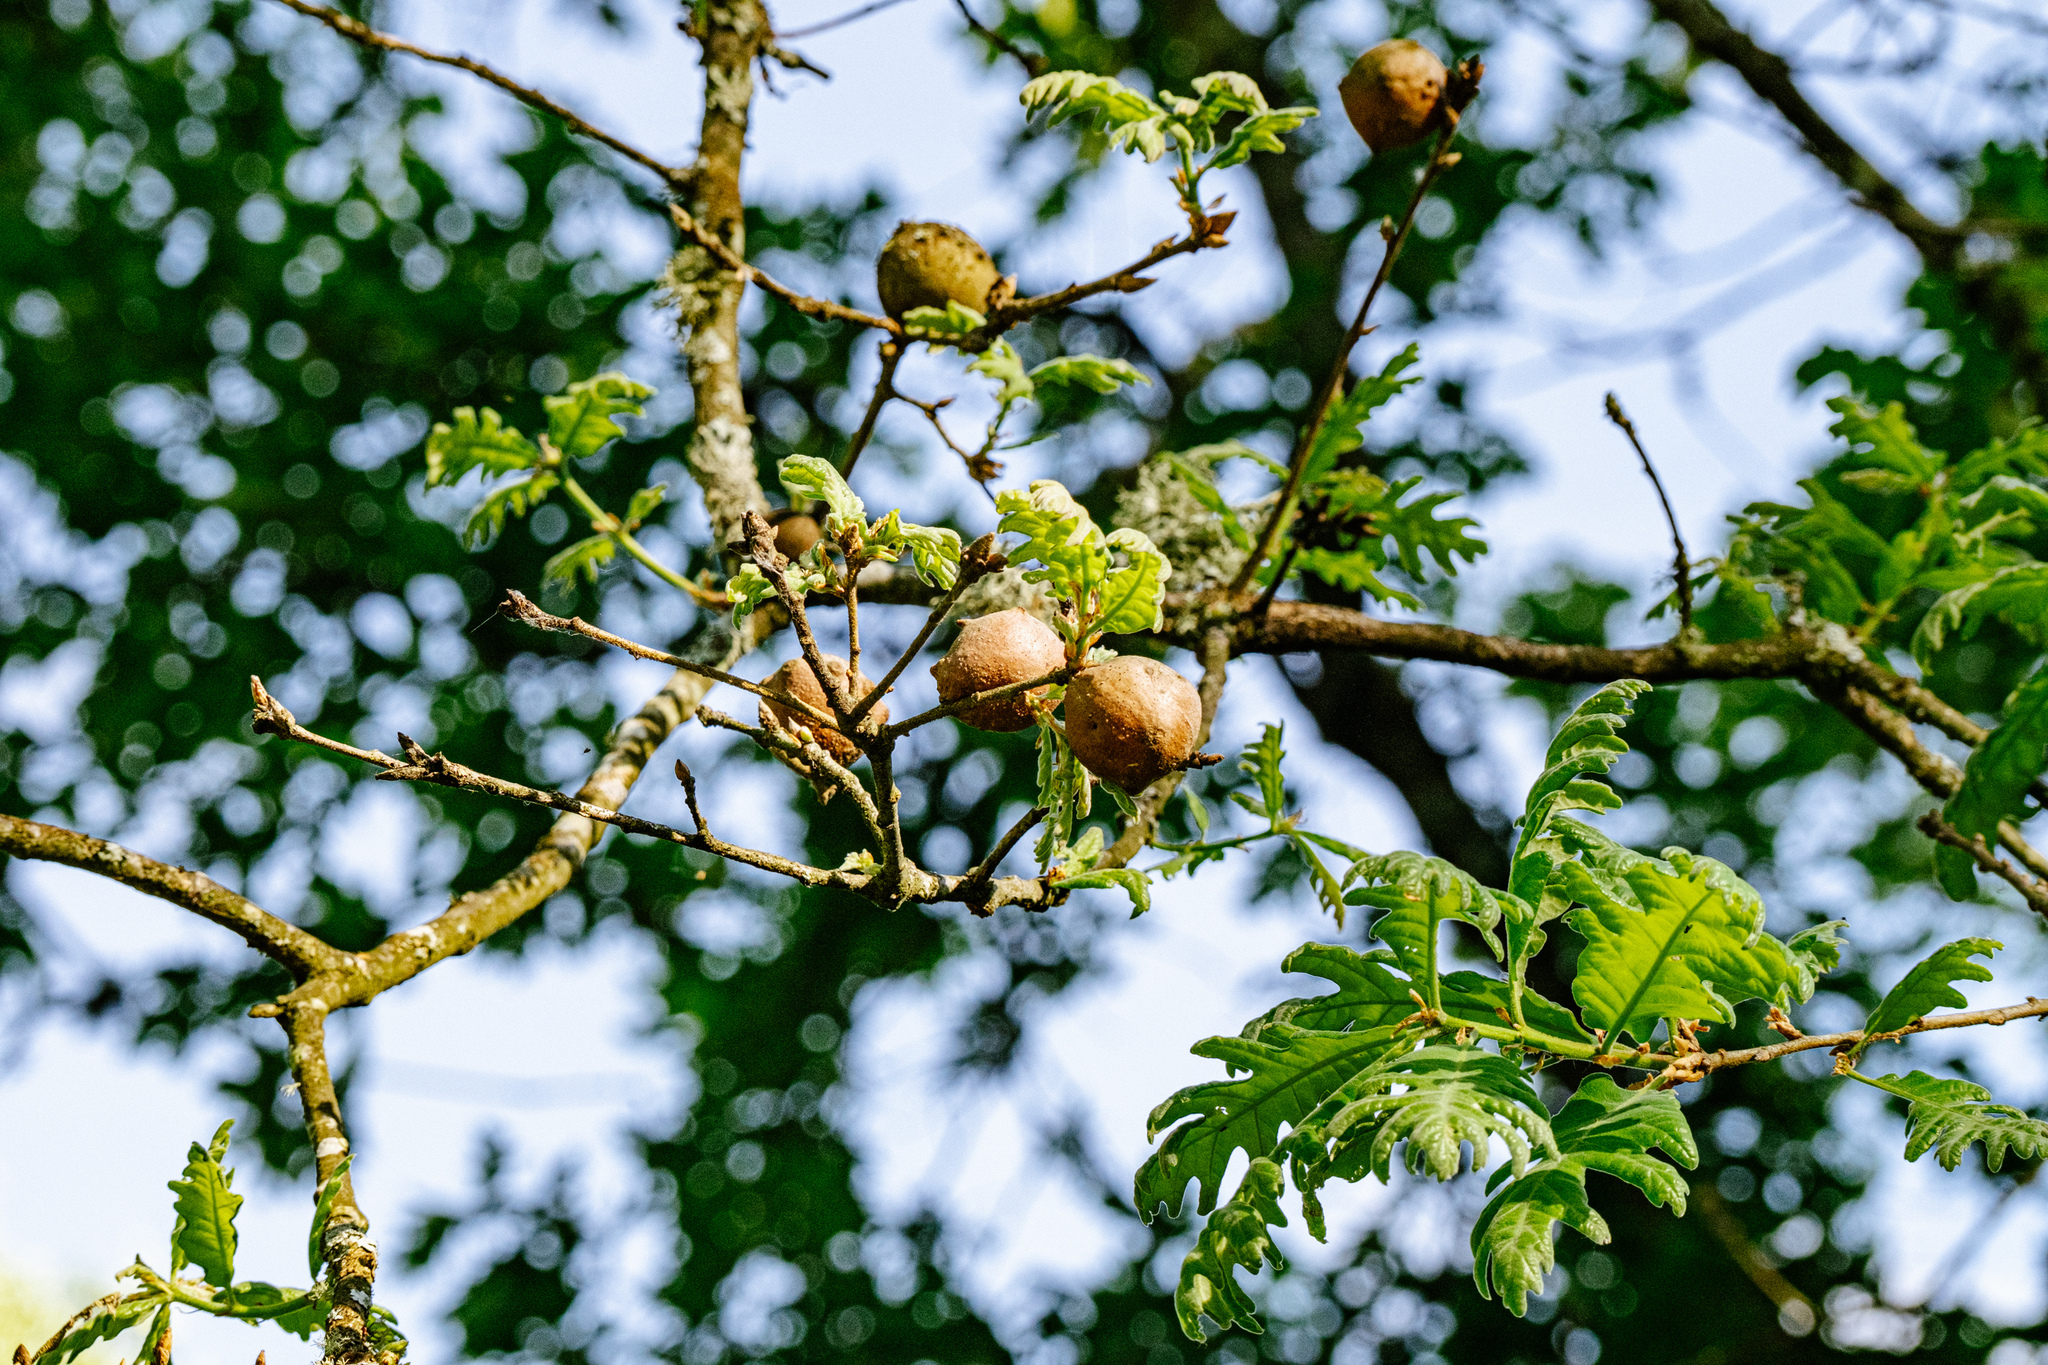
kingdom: Plantae
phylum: Tracheophyta
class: Magnoliopsida
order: Fagales
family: Fagaceae
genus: Quercus
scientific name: Quercus pyrenaica
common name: Pyrenean oak
